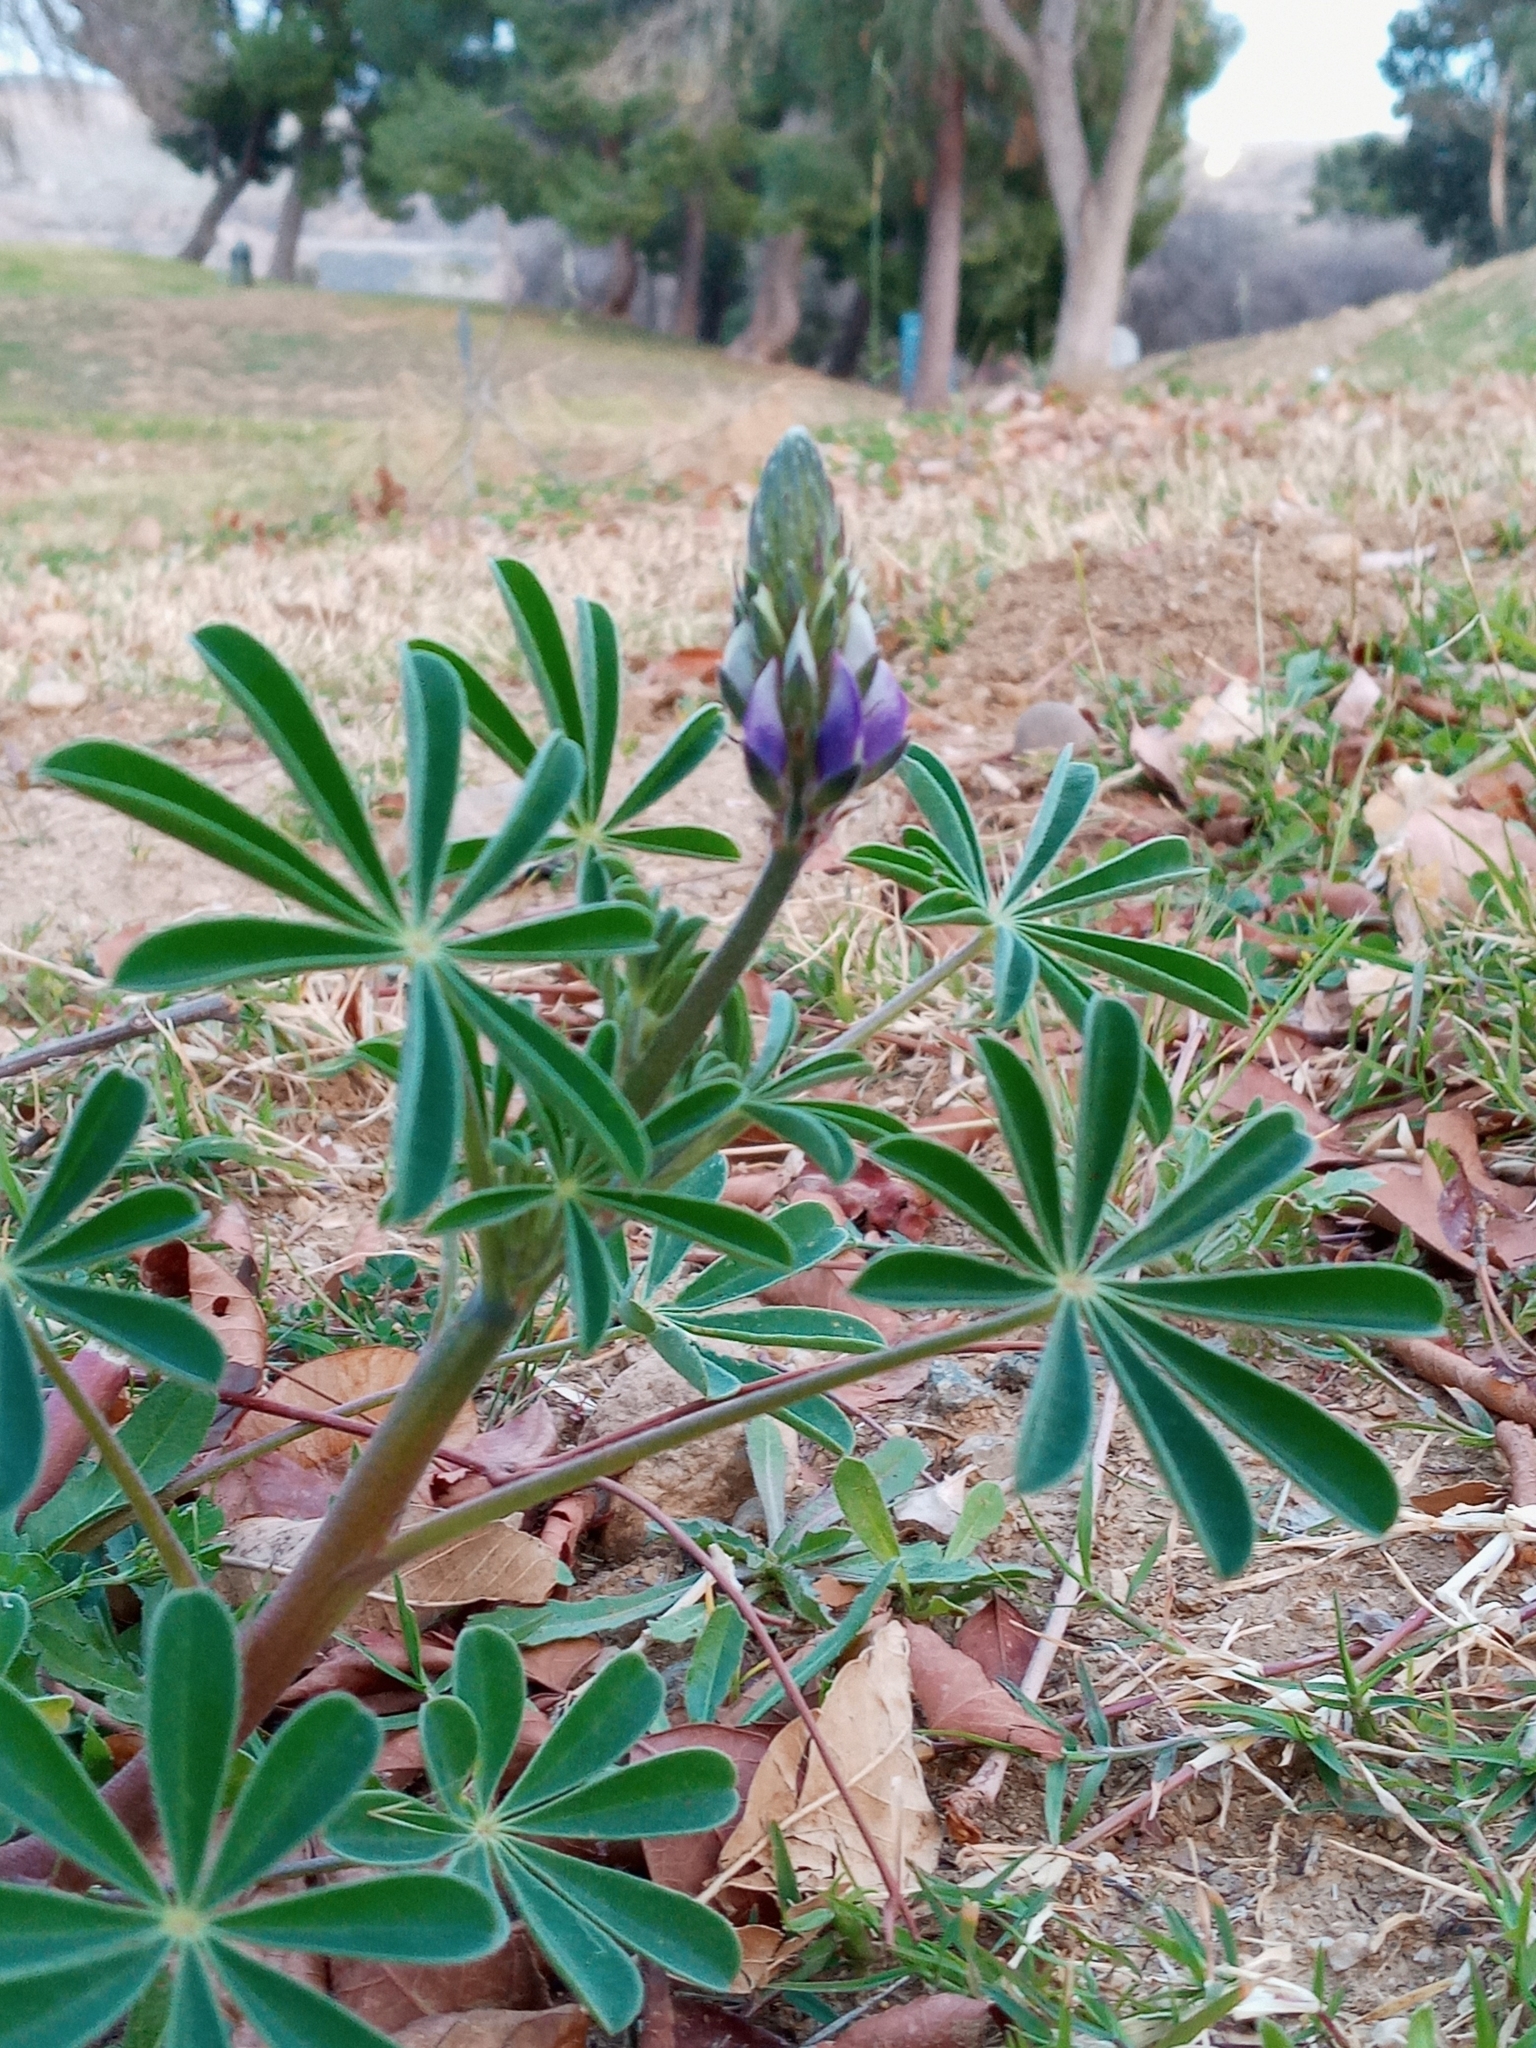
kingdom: Plantae
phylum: Tracheophyta
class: Magnoliopsida
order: Fabales
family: Fabaceae
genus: Lupinus
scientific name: Lupinus succulentus
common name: Arroyo lupine
